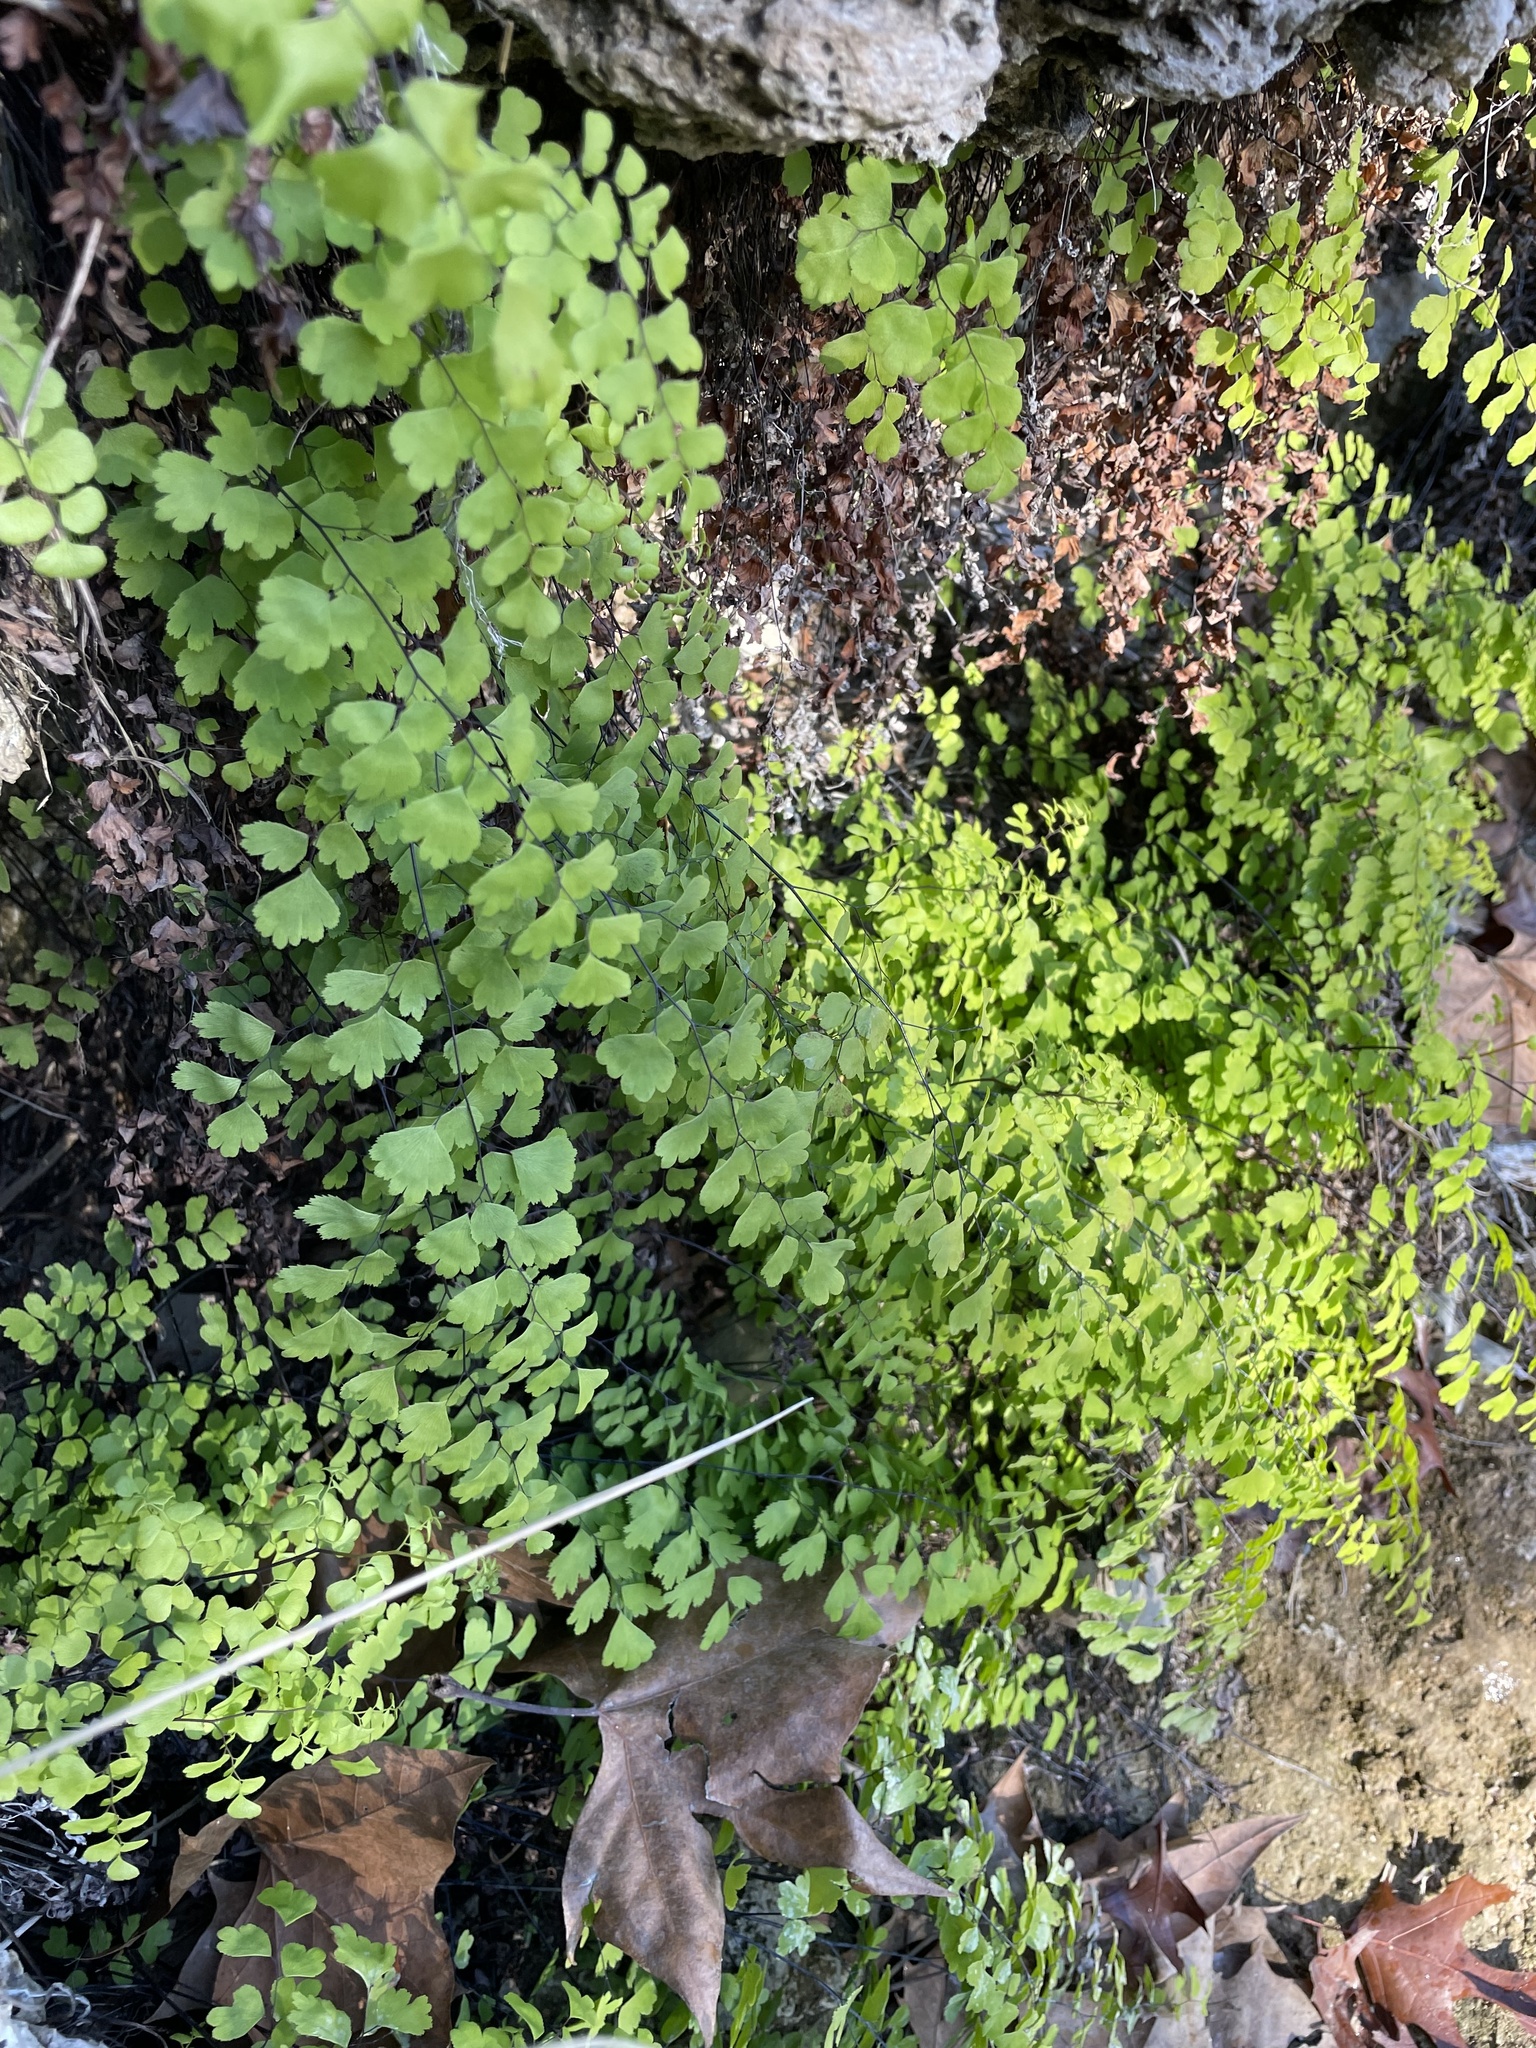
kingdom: Plantae
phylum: Tracheophyta
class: Polypodiopsida
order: Polypodiales
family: Pteridaceae
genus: Adiantum
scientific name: Adiantum capillus-veneris
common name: Maidenhair fern
